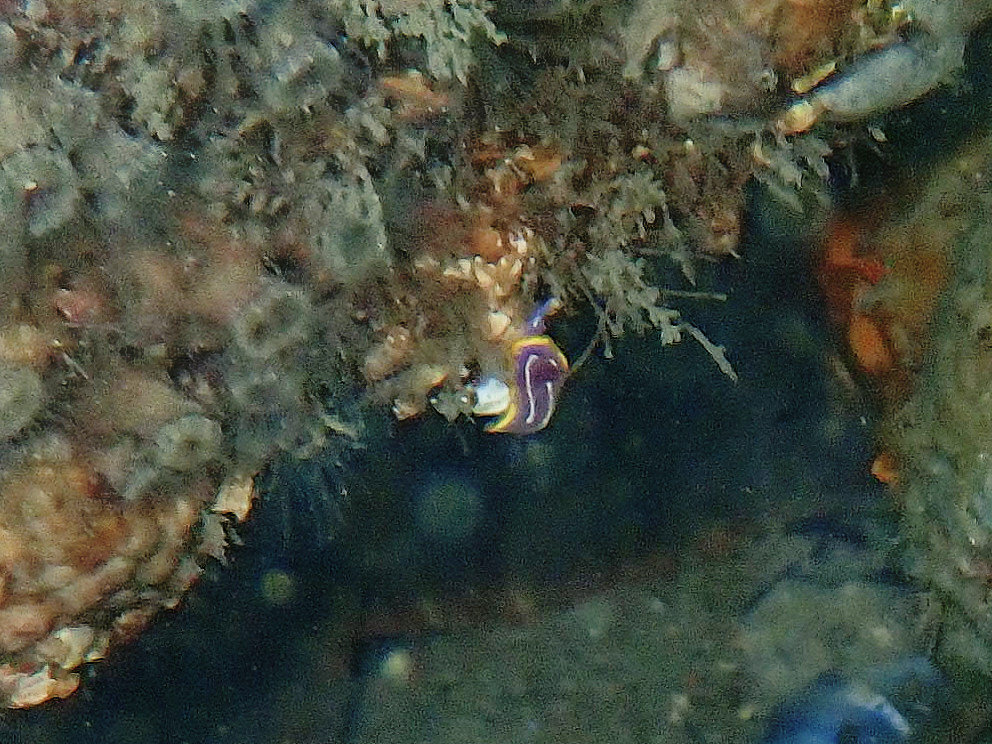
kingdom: Animalia
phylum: Mollusca
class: Gastropoda
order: Nudibranchia
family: Chromodorididae
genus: Felimida
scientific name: Felimida krohni
